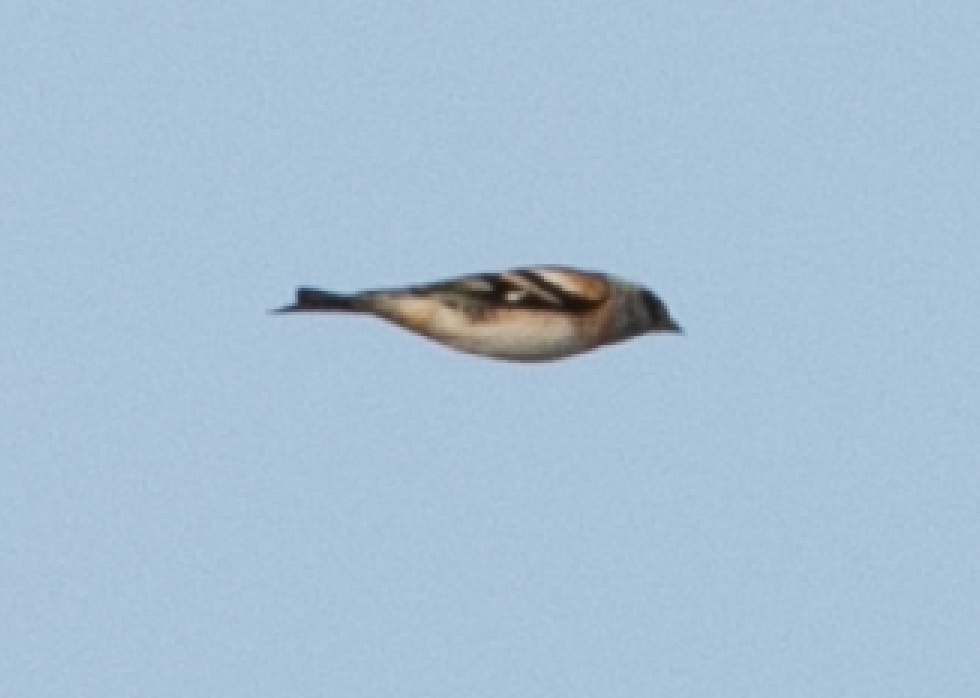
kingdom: Animalia
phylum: Chordata
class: Aves
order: Passeriformes
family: Fringillidae
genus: Fringilla
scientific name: Fringilla montifringilla
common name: Brambling
